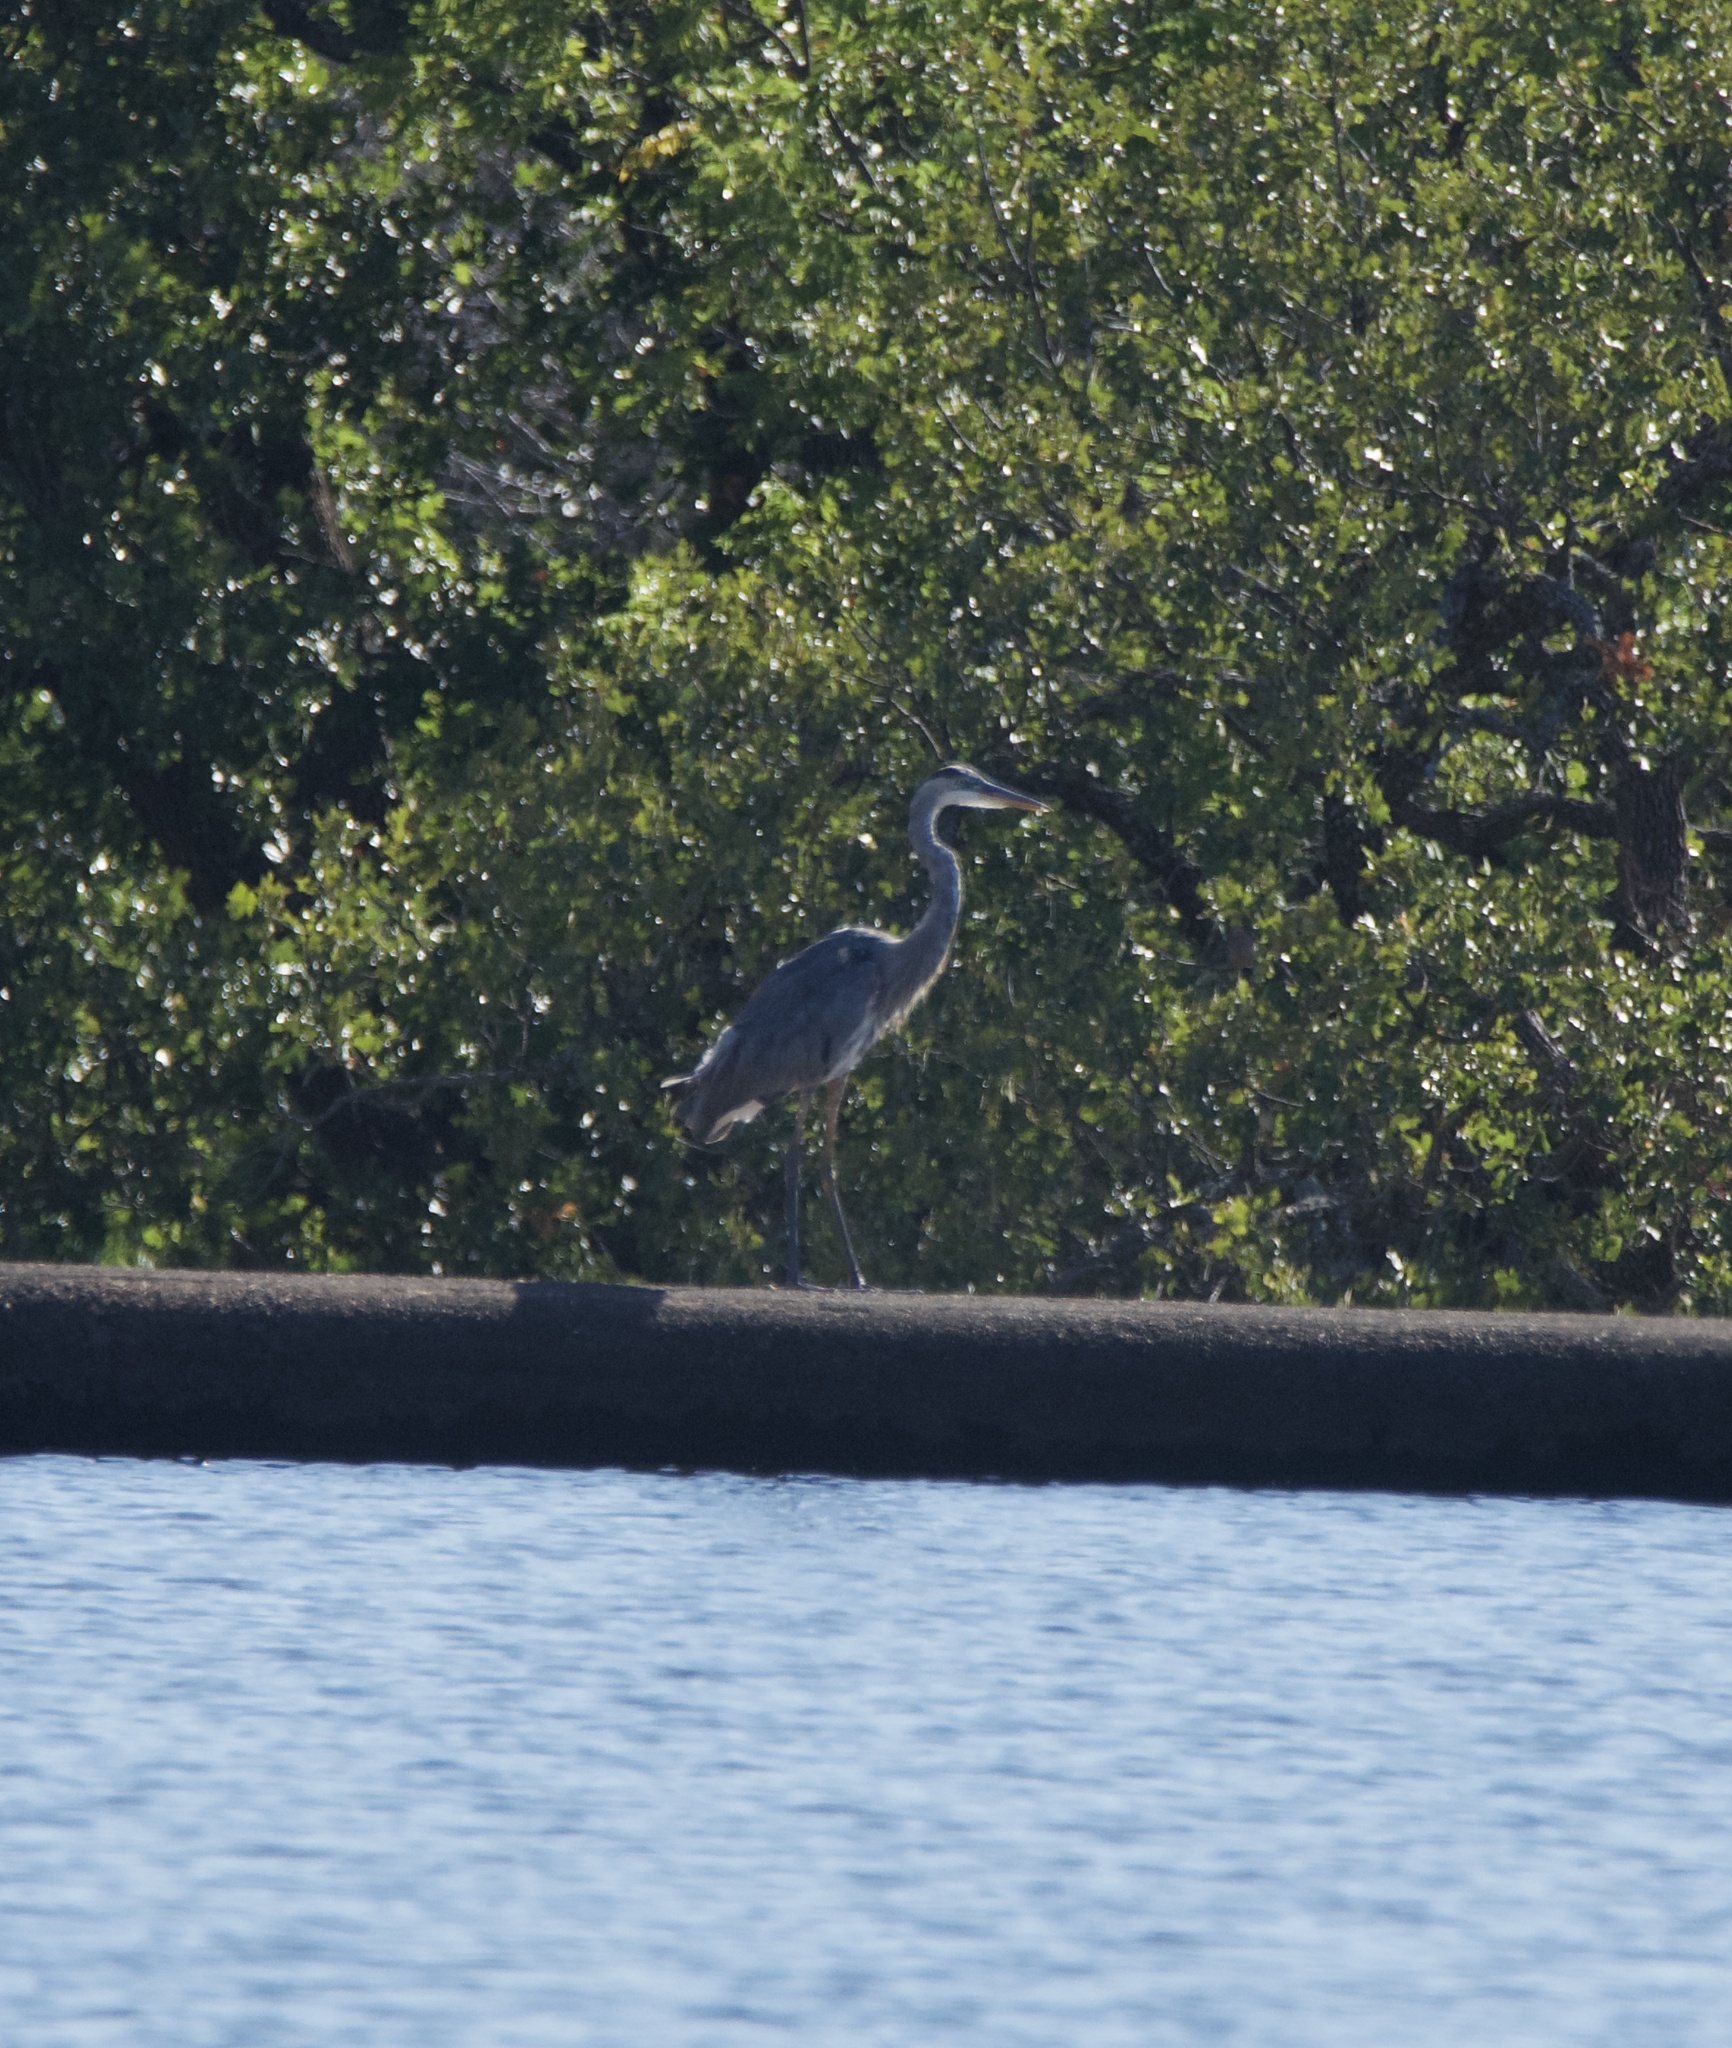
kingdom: Animalia
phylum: Chordata
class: Aves
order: Pelecaniformes
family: Ardeidae
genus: Ardea
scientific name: Ardea herodias
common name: Great blue heron
